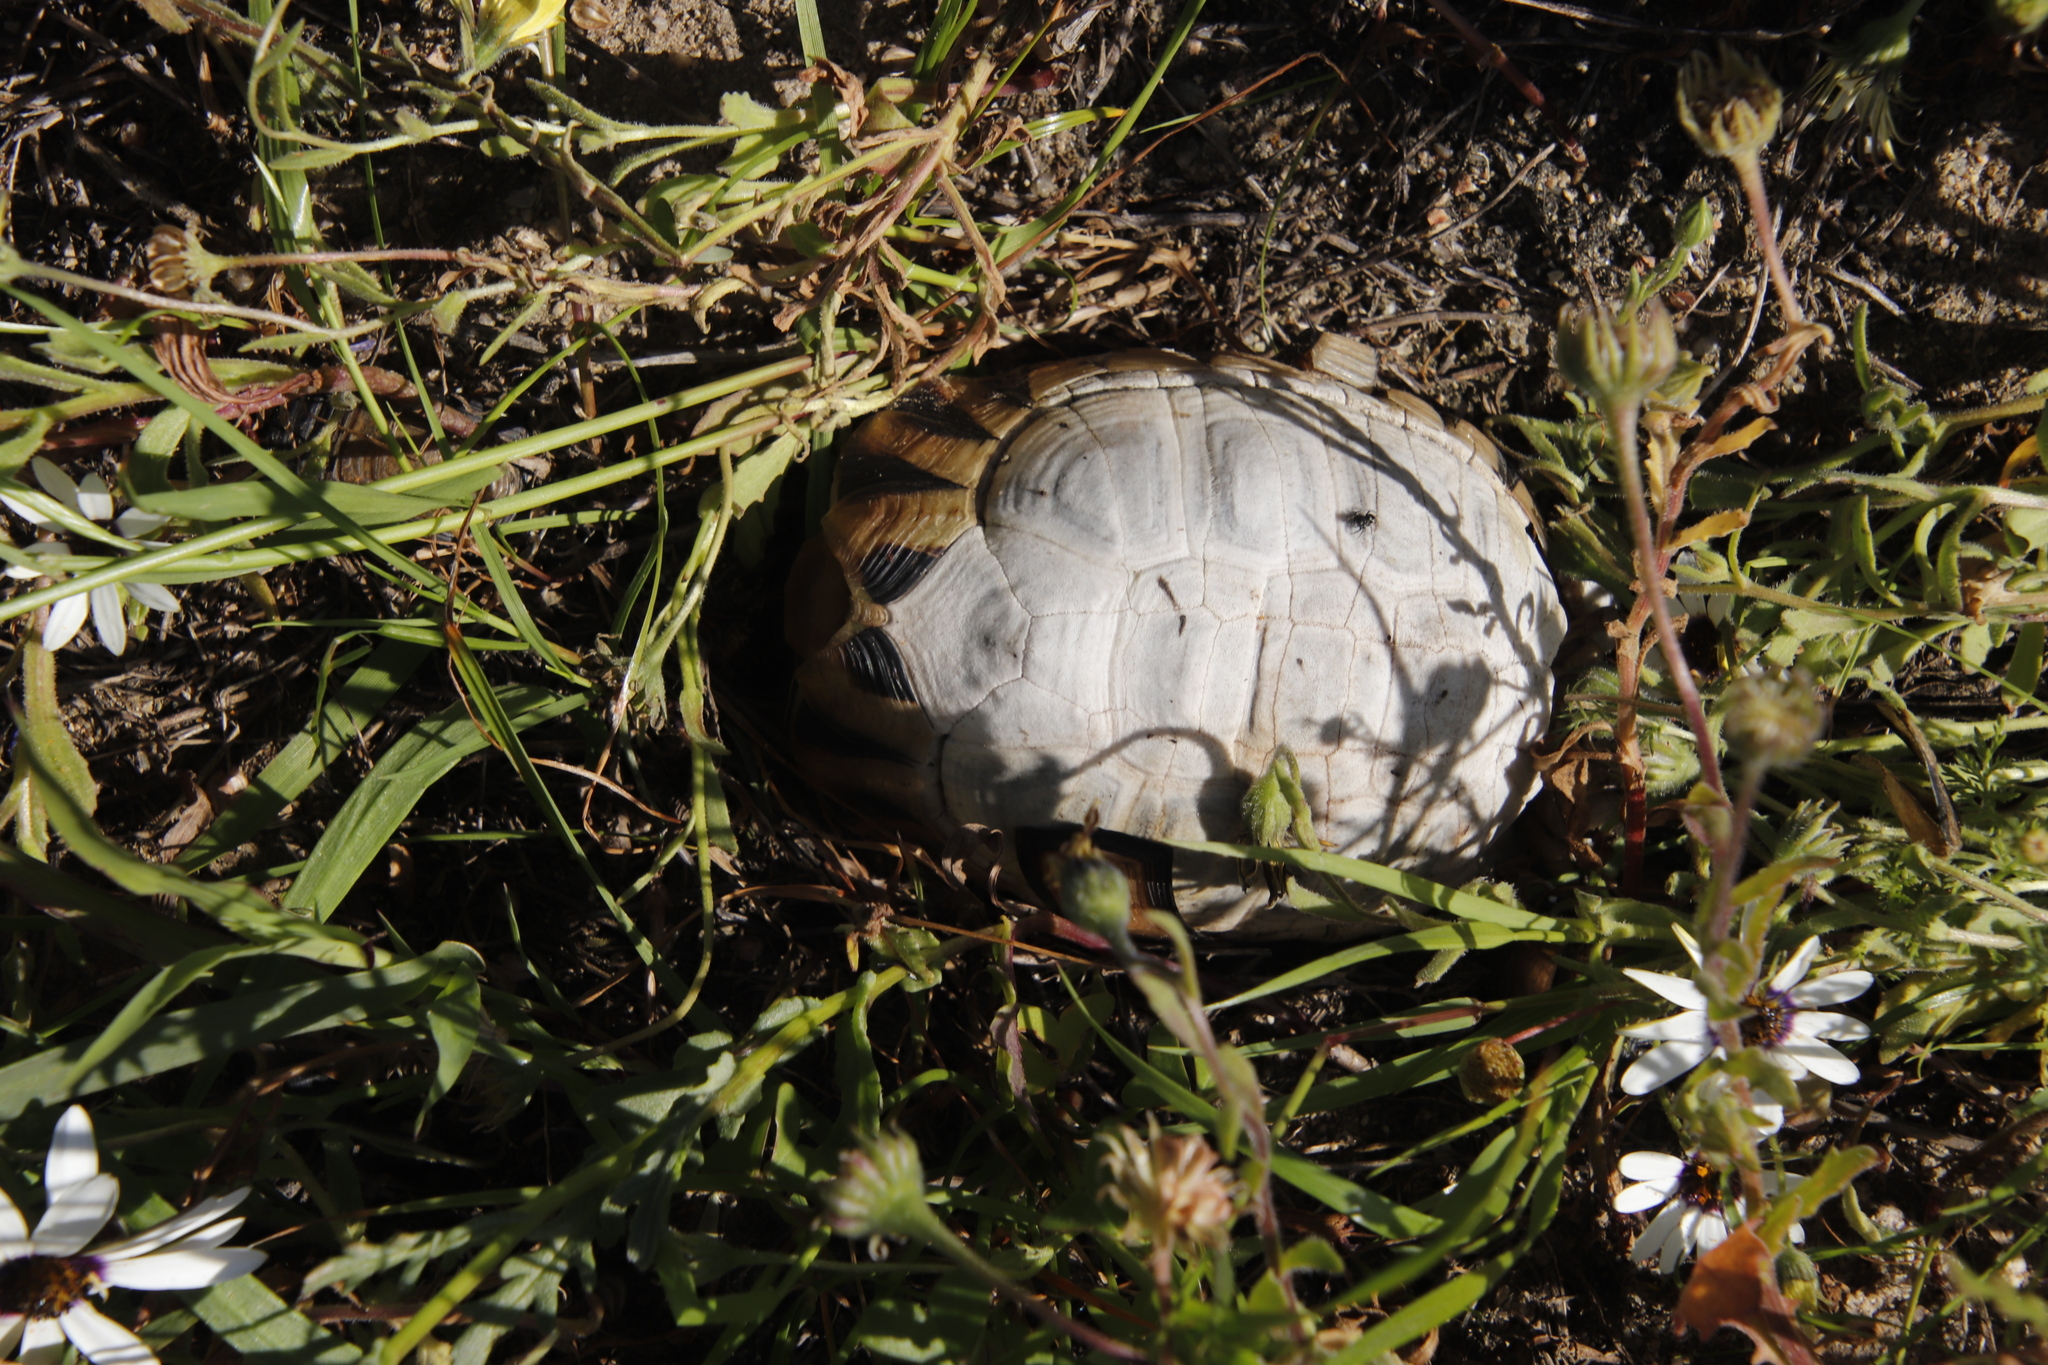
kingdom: Animalia
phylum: Chordata
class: Testudines
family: Testudinidae
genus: Chersina
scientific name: Chersina angulata
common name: South african bowsprit tortoise
